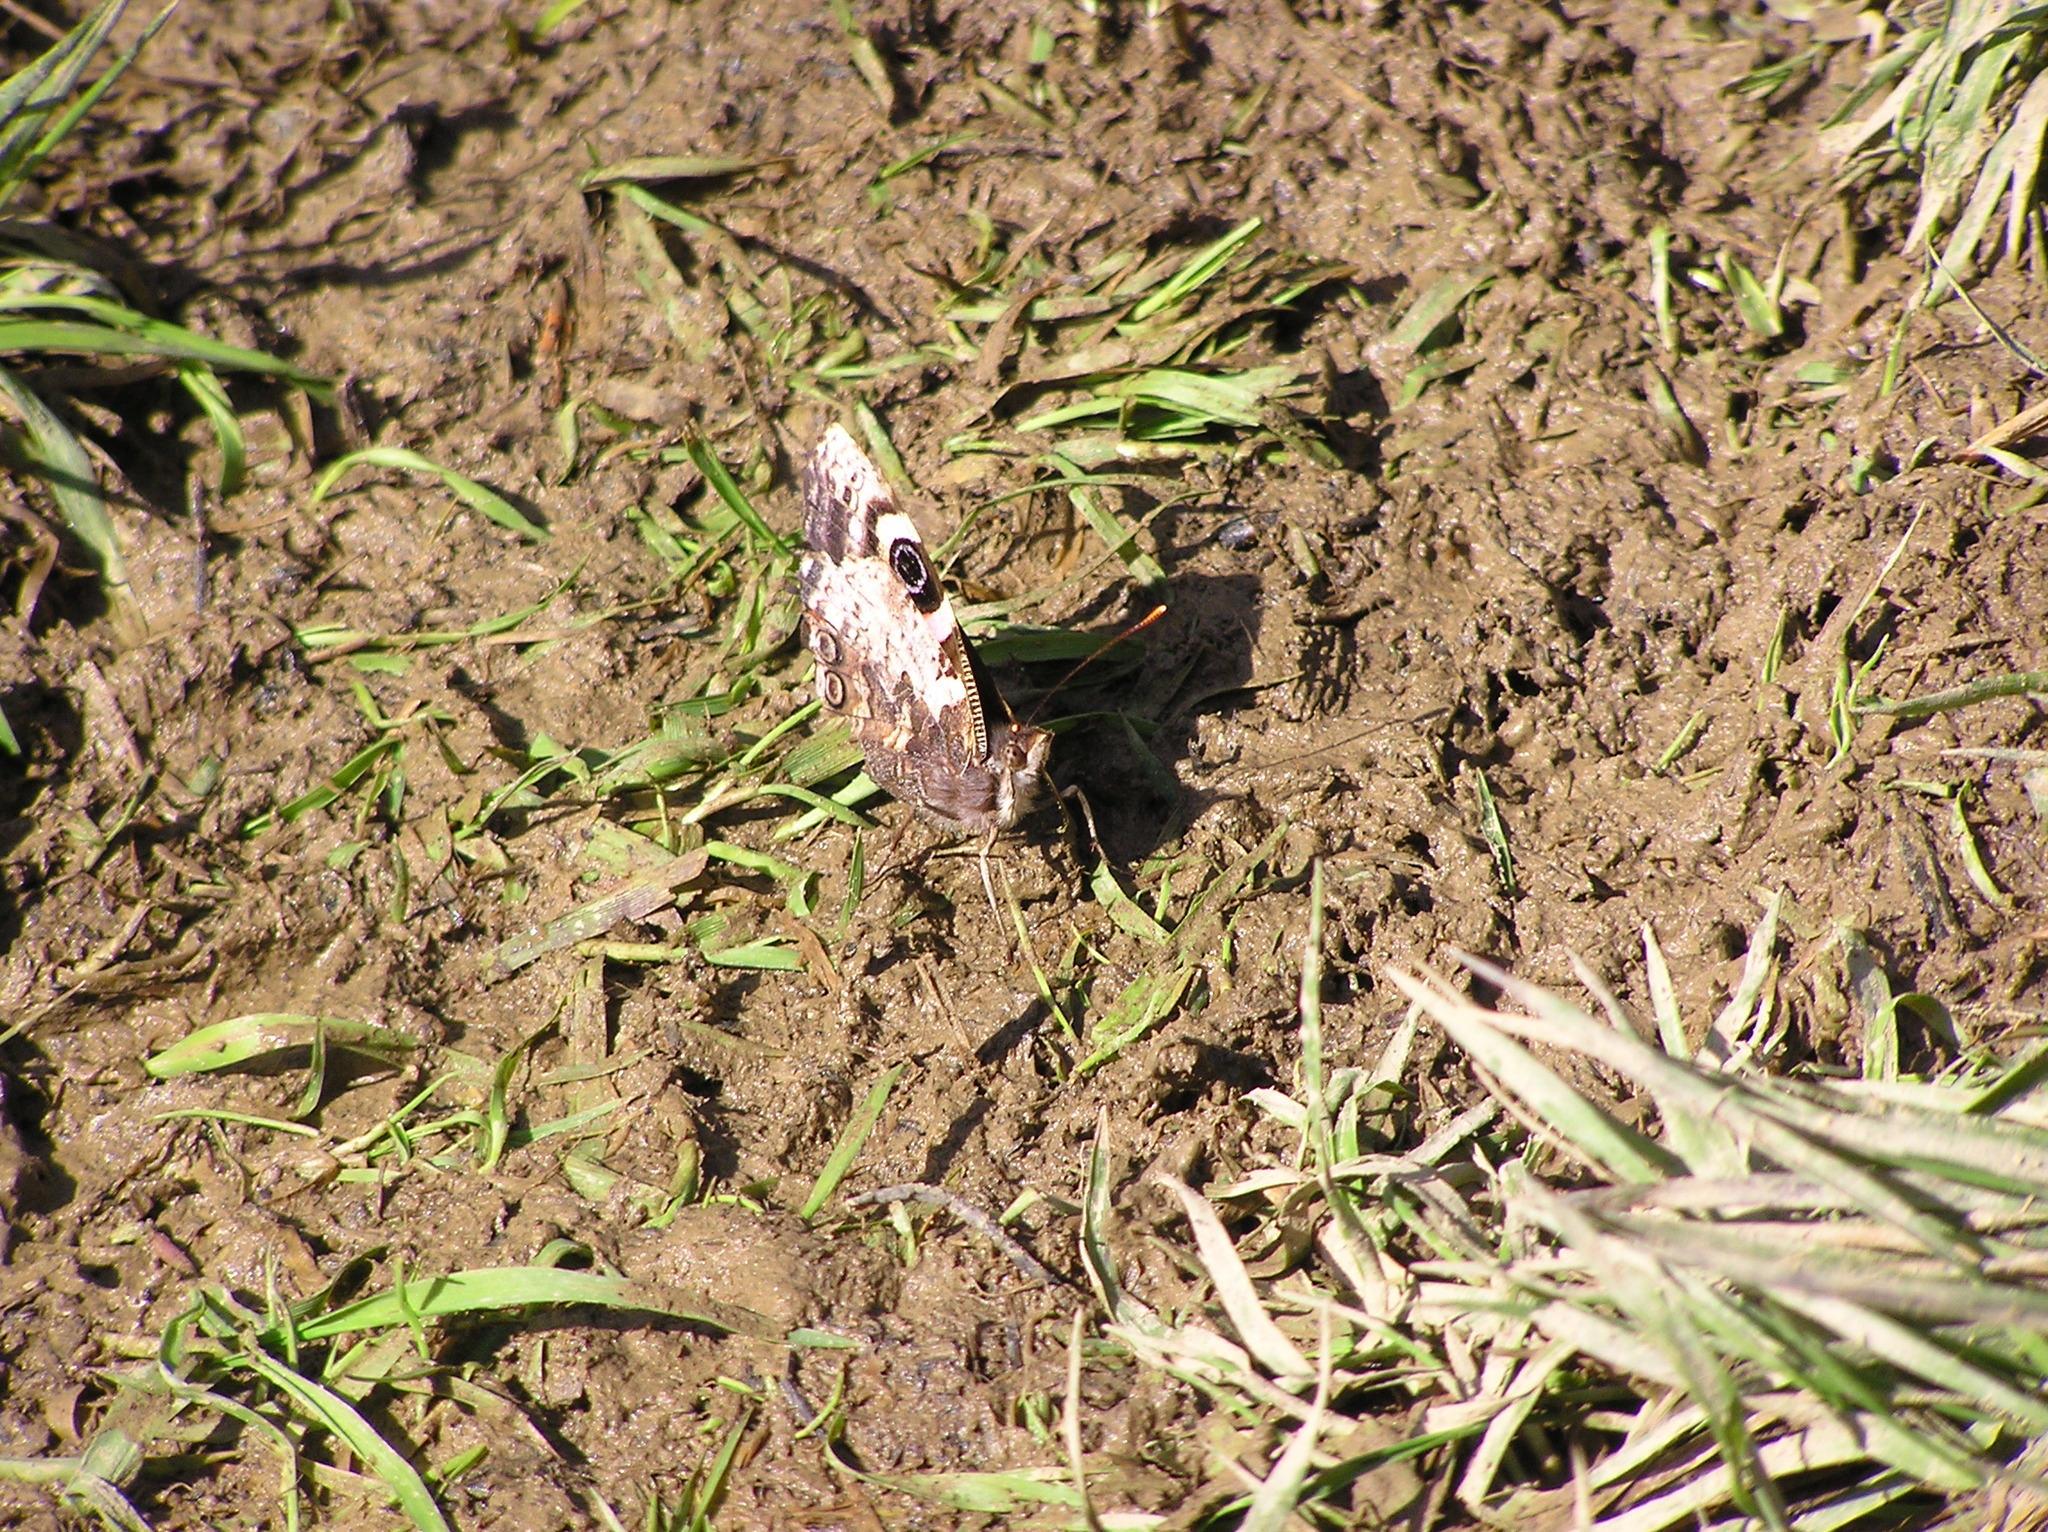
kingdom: Animalia
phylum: Arthropoda
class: Insecta
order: Lepidoptera
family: Nymphalidae
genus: Vanessa
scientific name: Vanessa gonerilla
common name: New zealand red admiral
